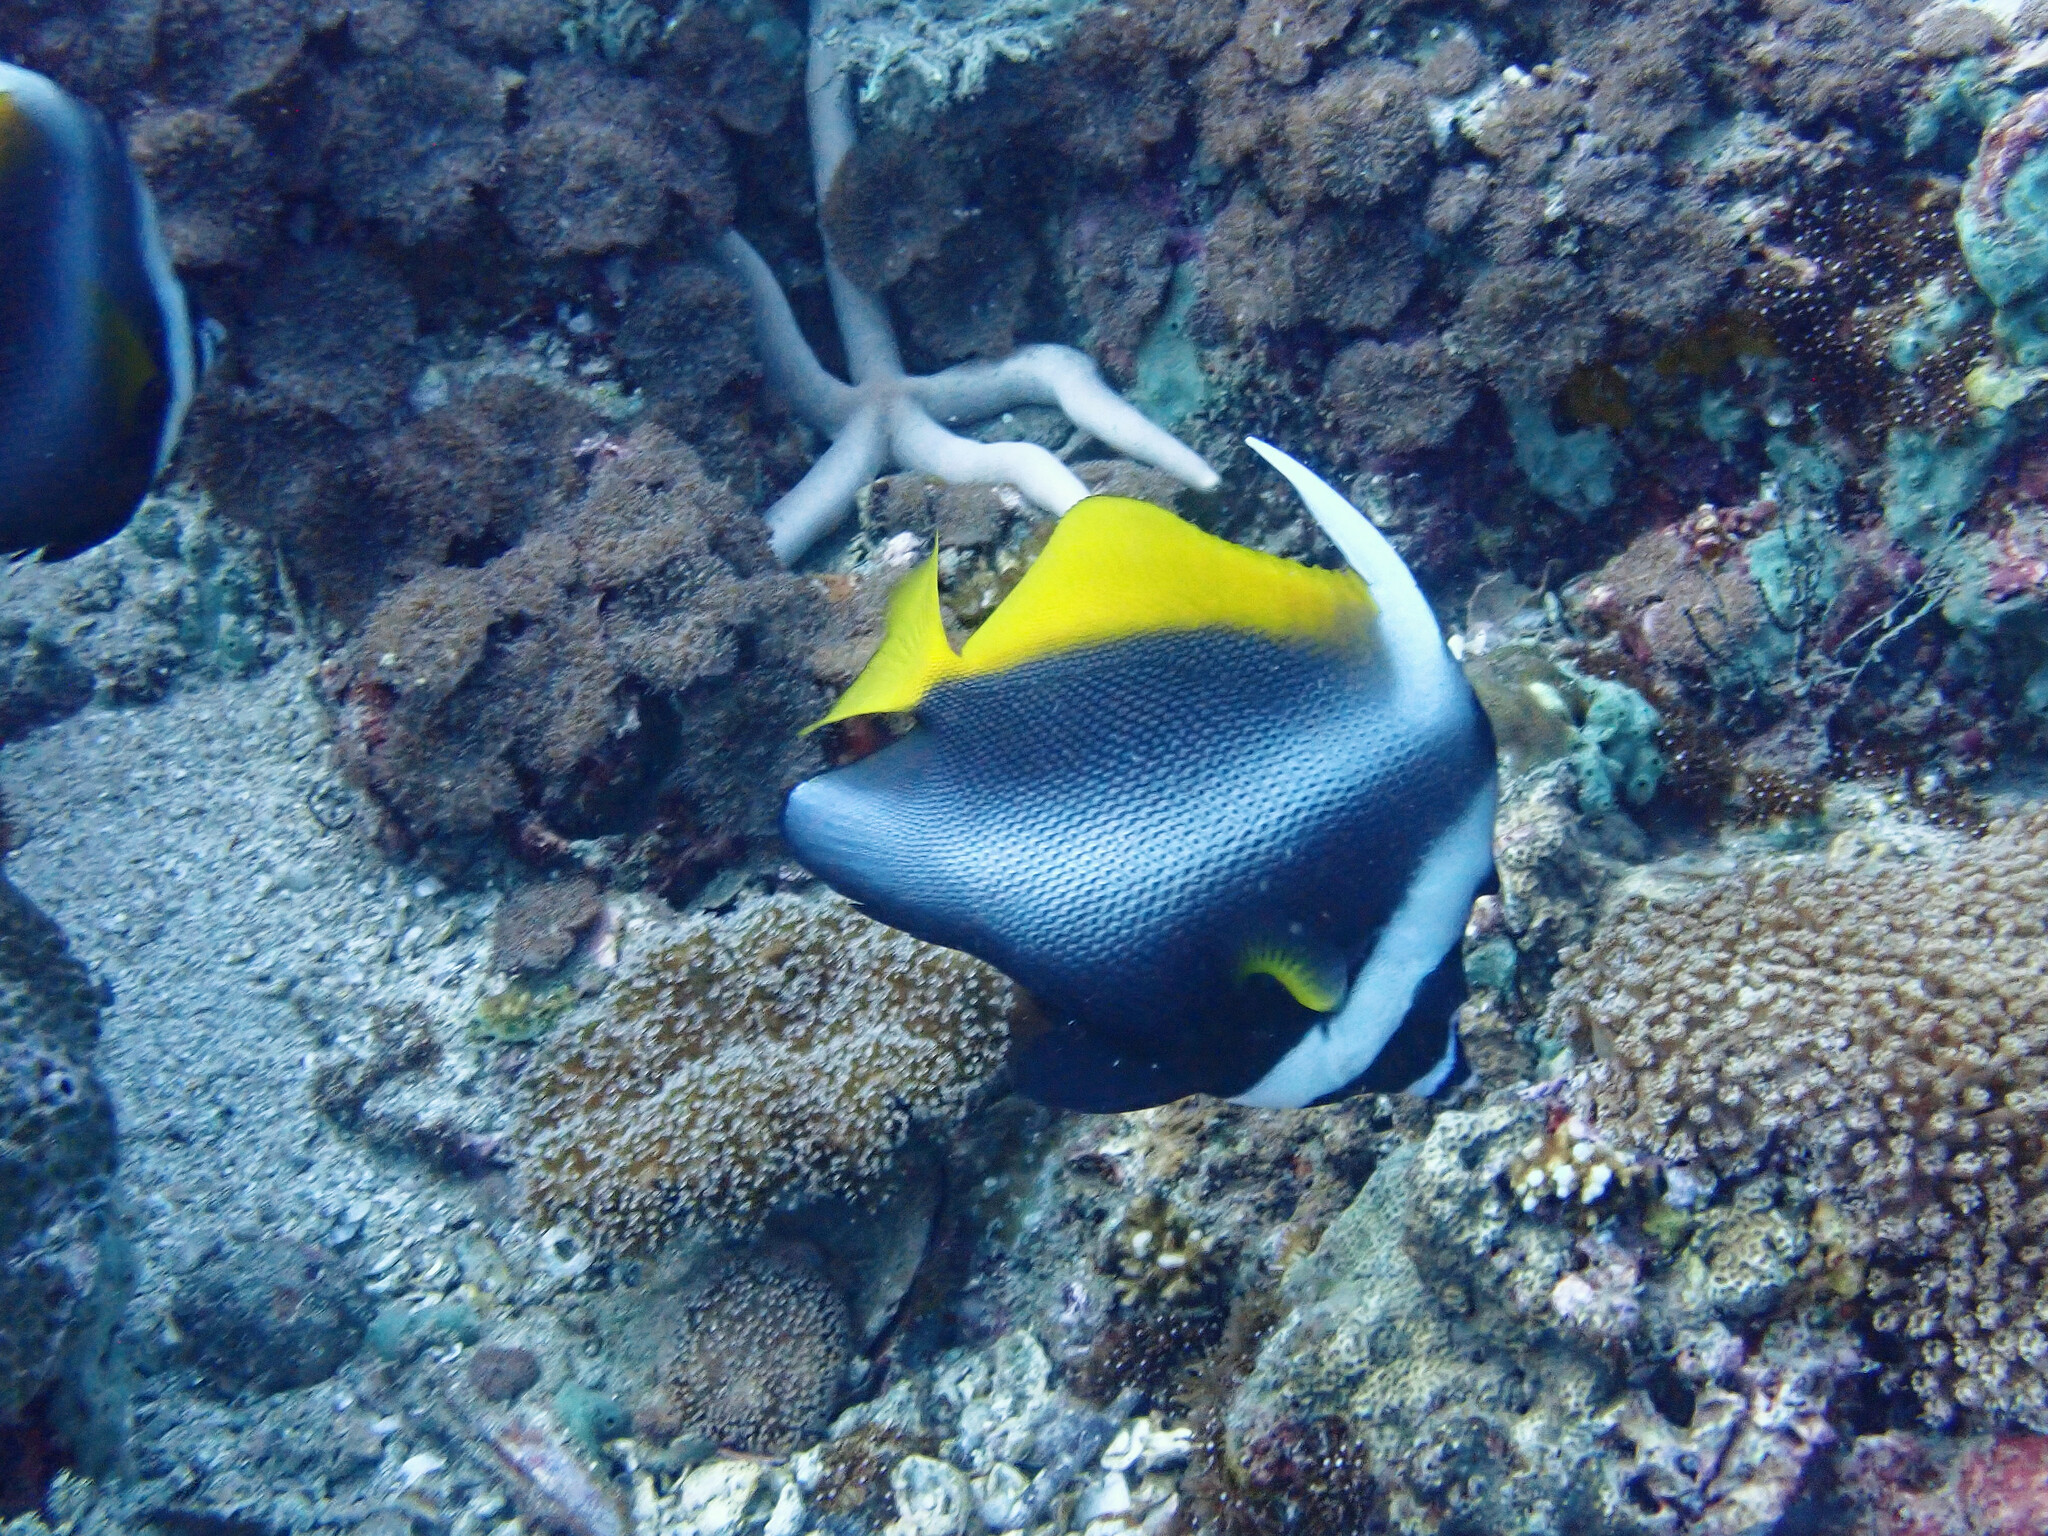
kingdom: Animalia
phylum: Chordata
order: Perciformes
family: Chaetodontidae
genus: Heniochus
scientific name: Heniochus singularius
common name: Singular bannerfish
